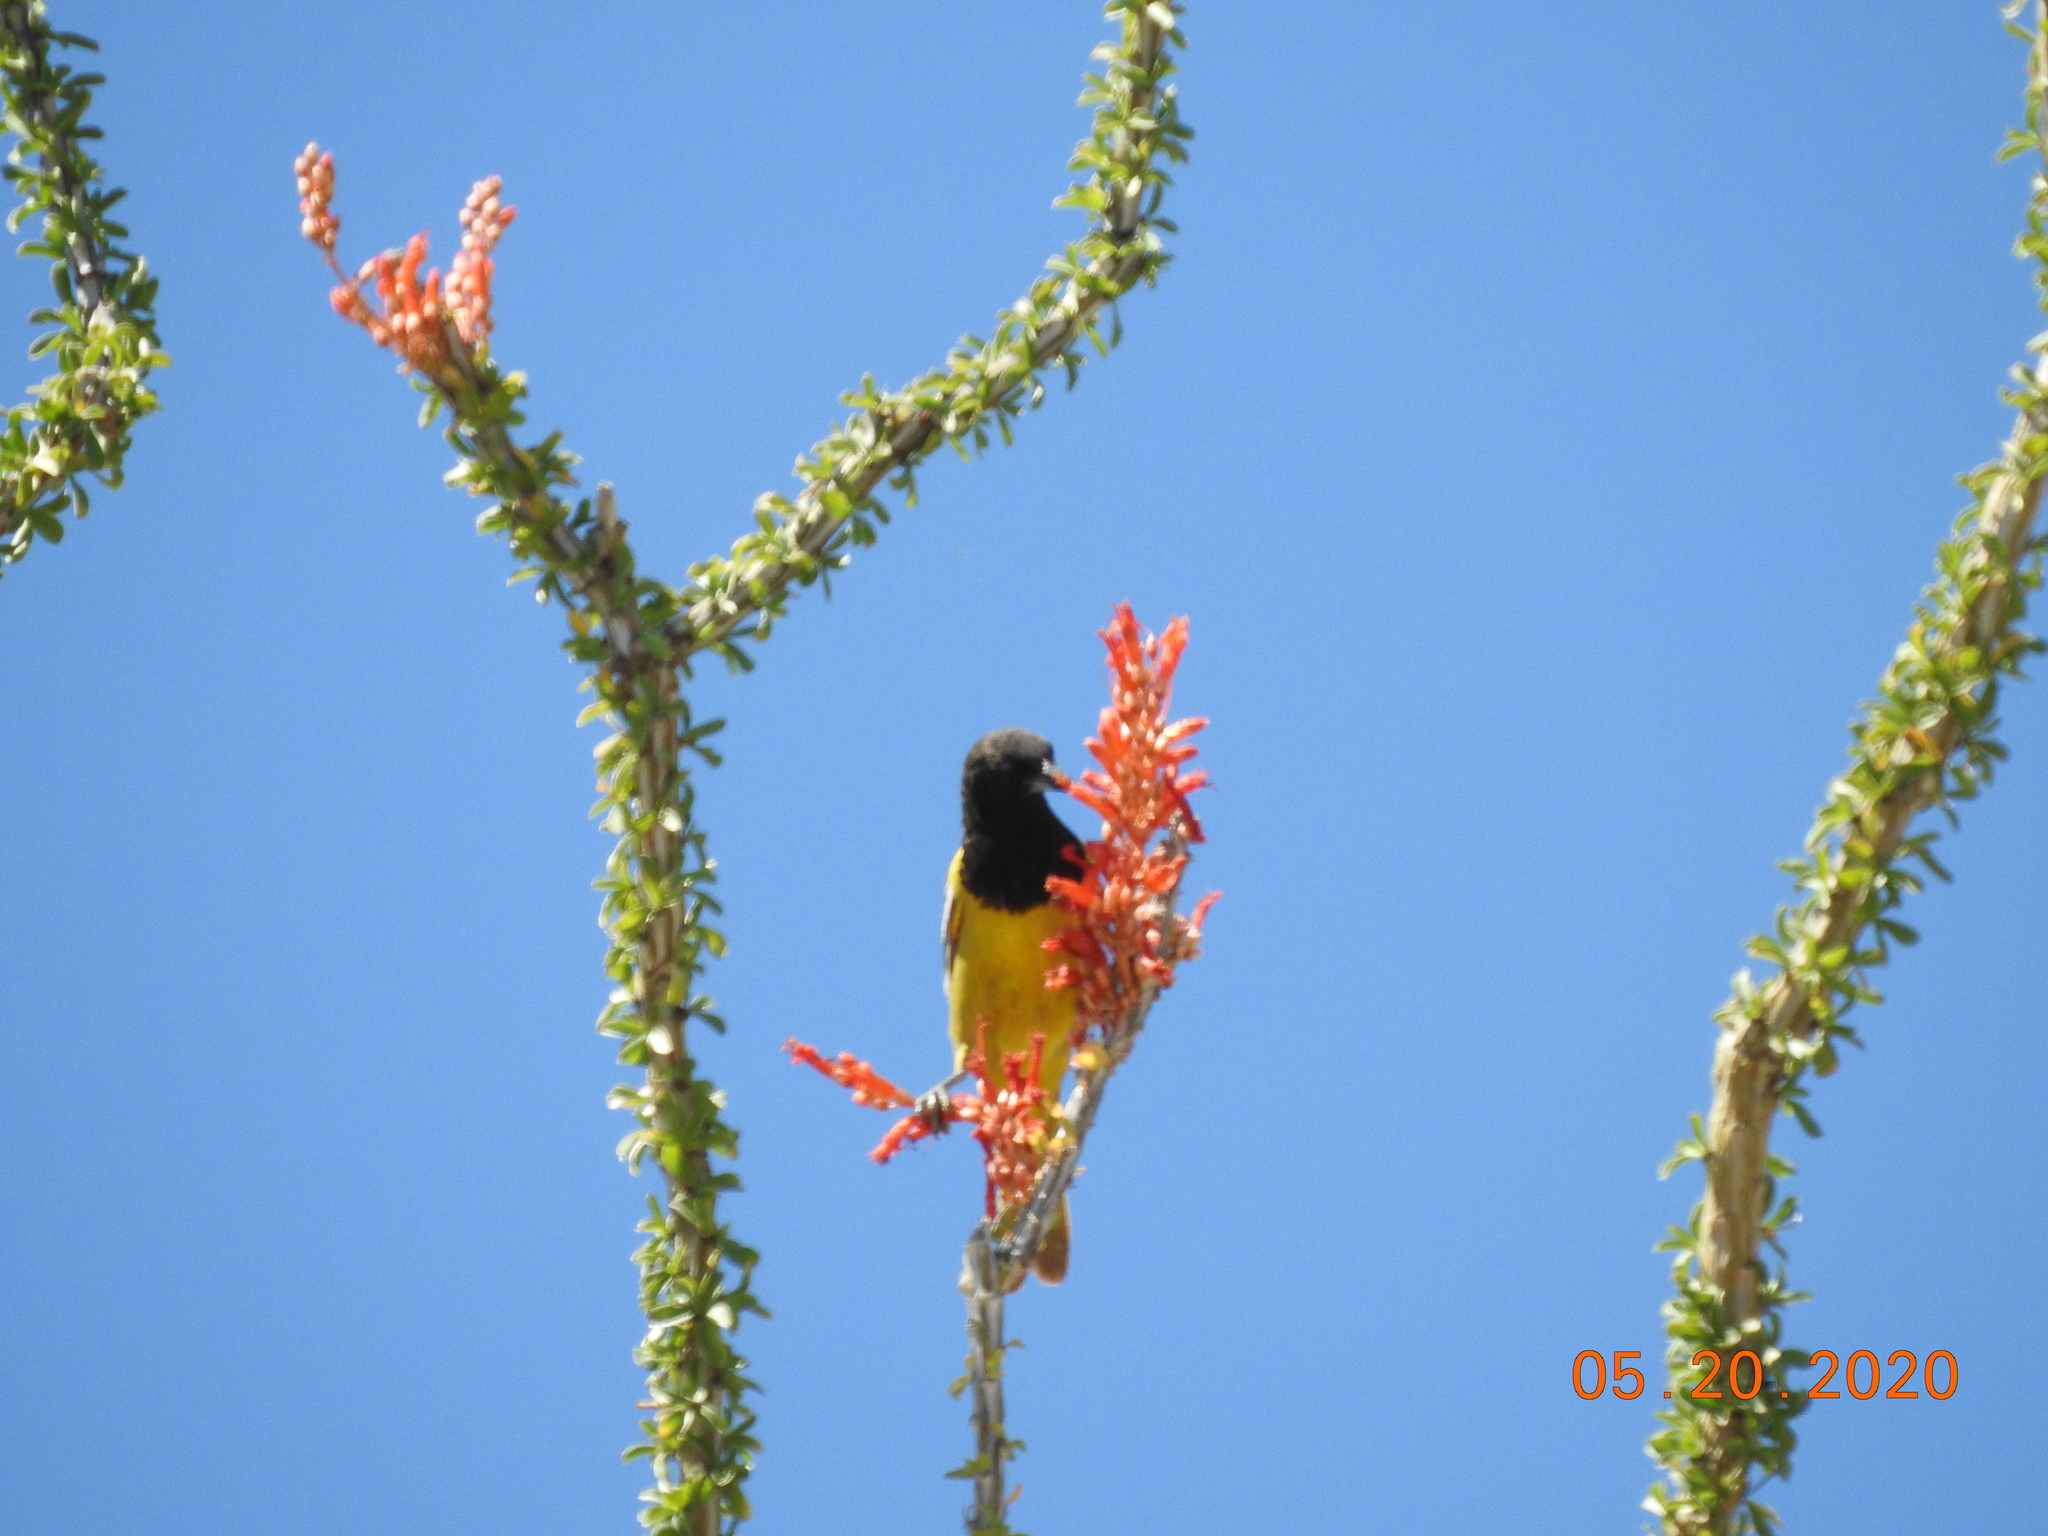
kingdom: Animalia
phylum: Chordata
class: Aves
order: Passeriformes
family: Icteridae
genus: Icterus
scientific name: Icterus parisorum
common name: Scott's oriole
